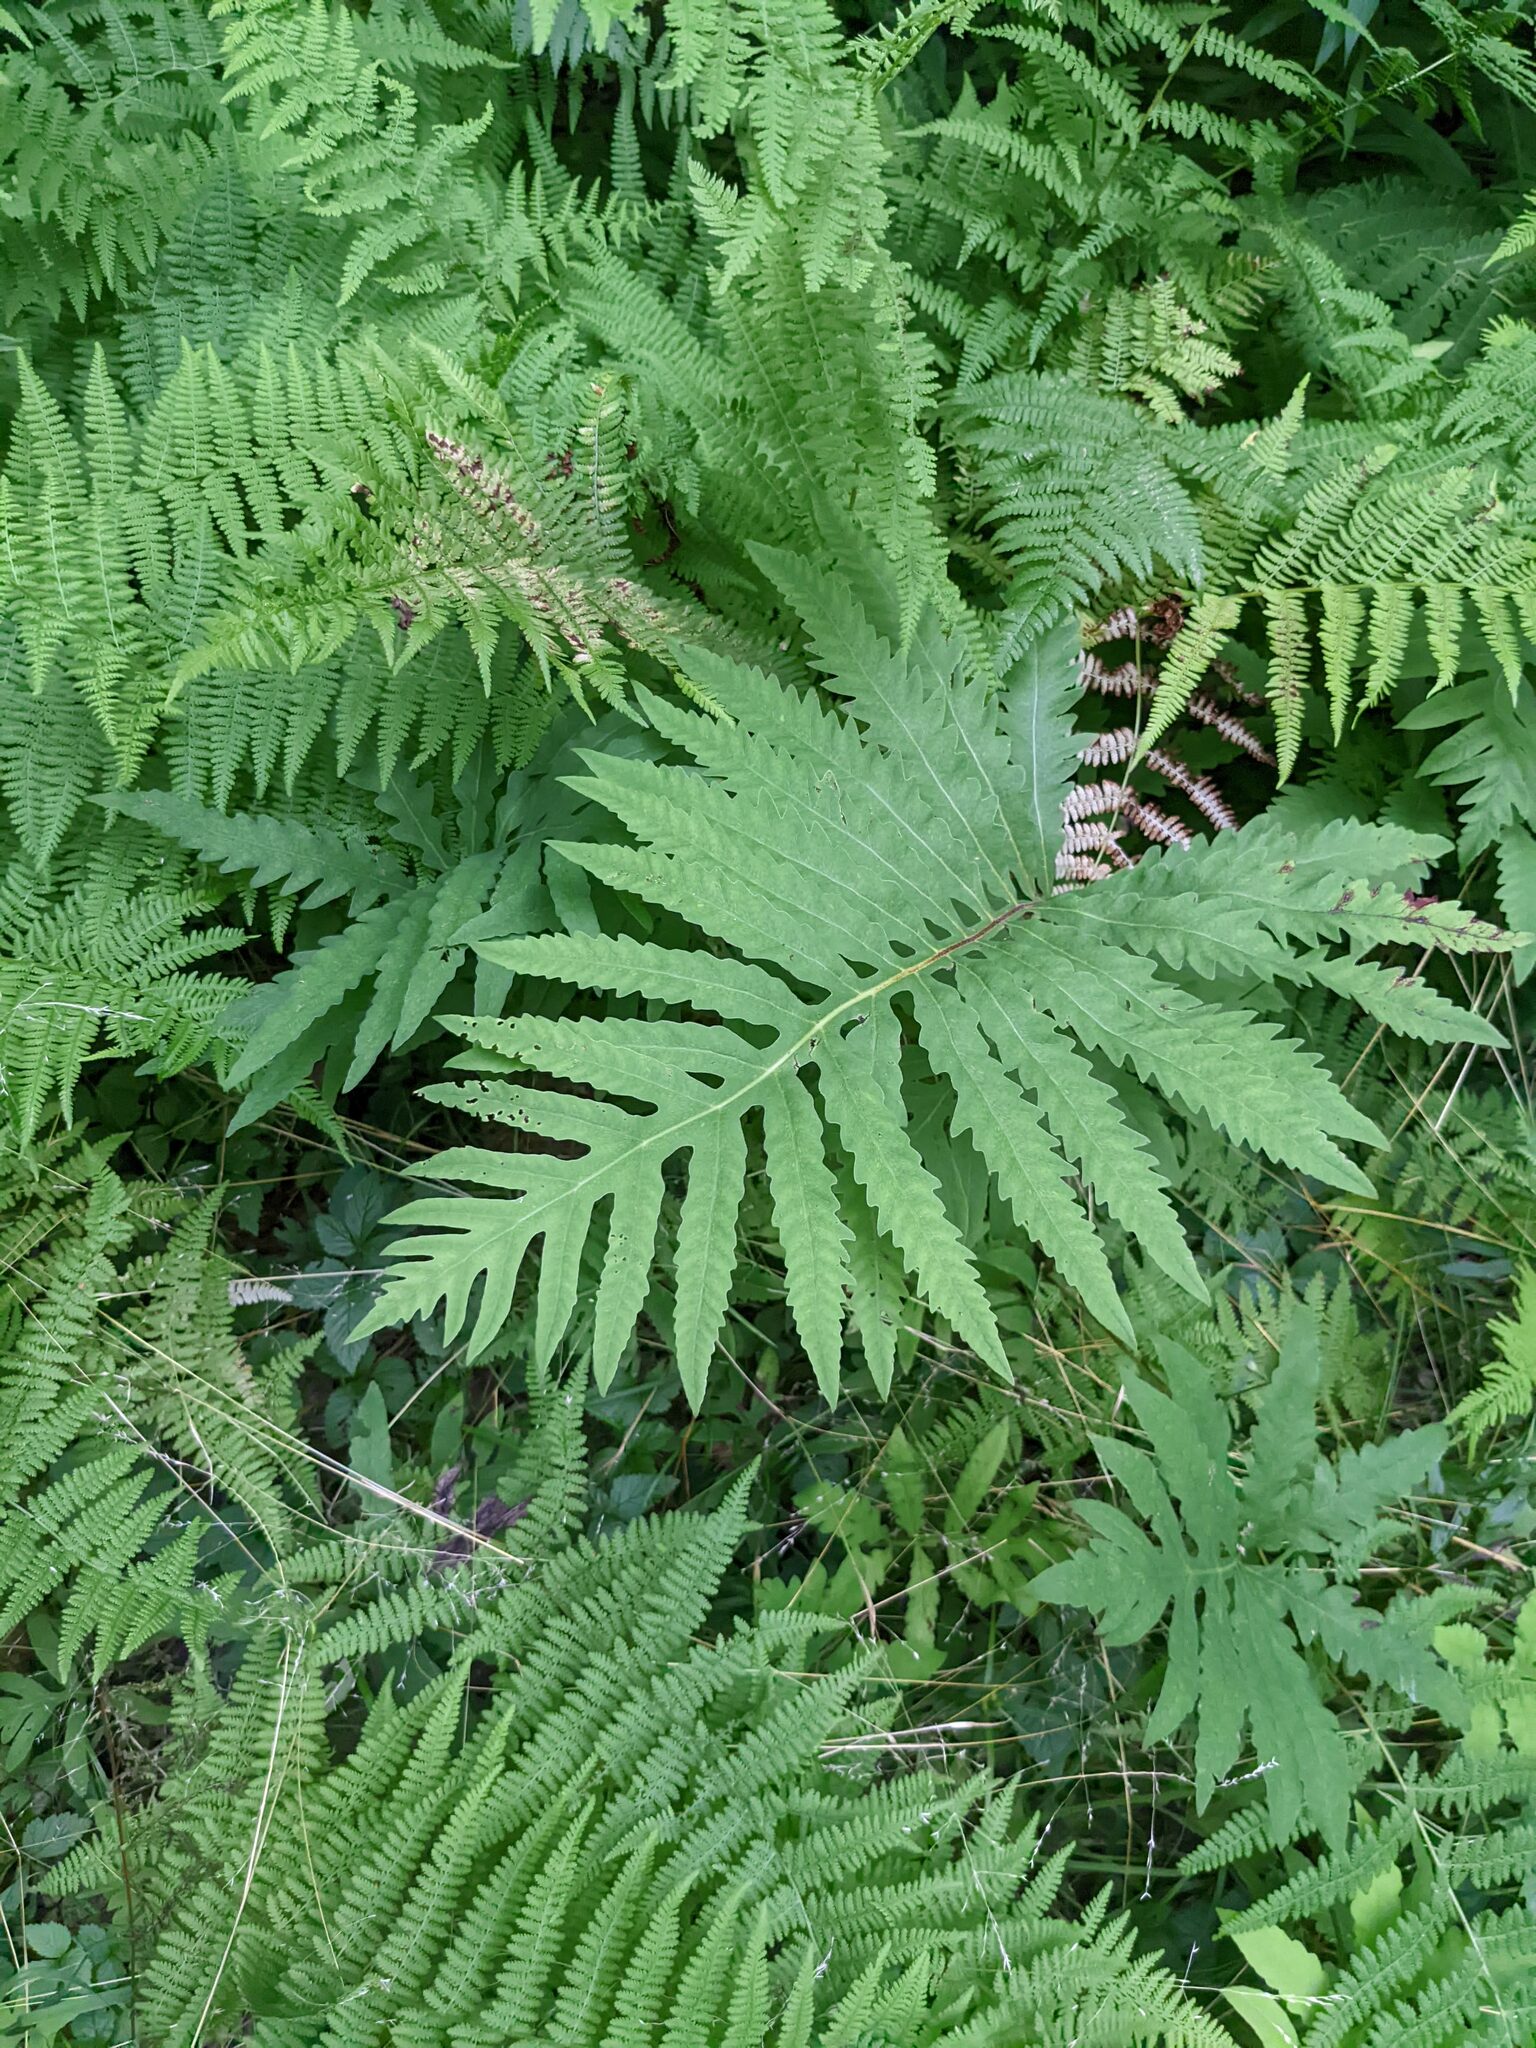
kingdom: Plantae
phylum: Tracheophyta
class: Polypodiopsida
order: Polypodiales
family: Onocleaceae
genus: Onoclea
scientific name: Onoclea sensibilis
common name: Sensitive fern
